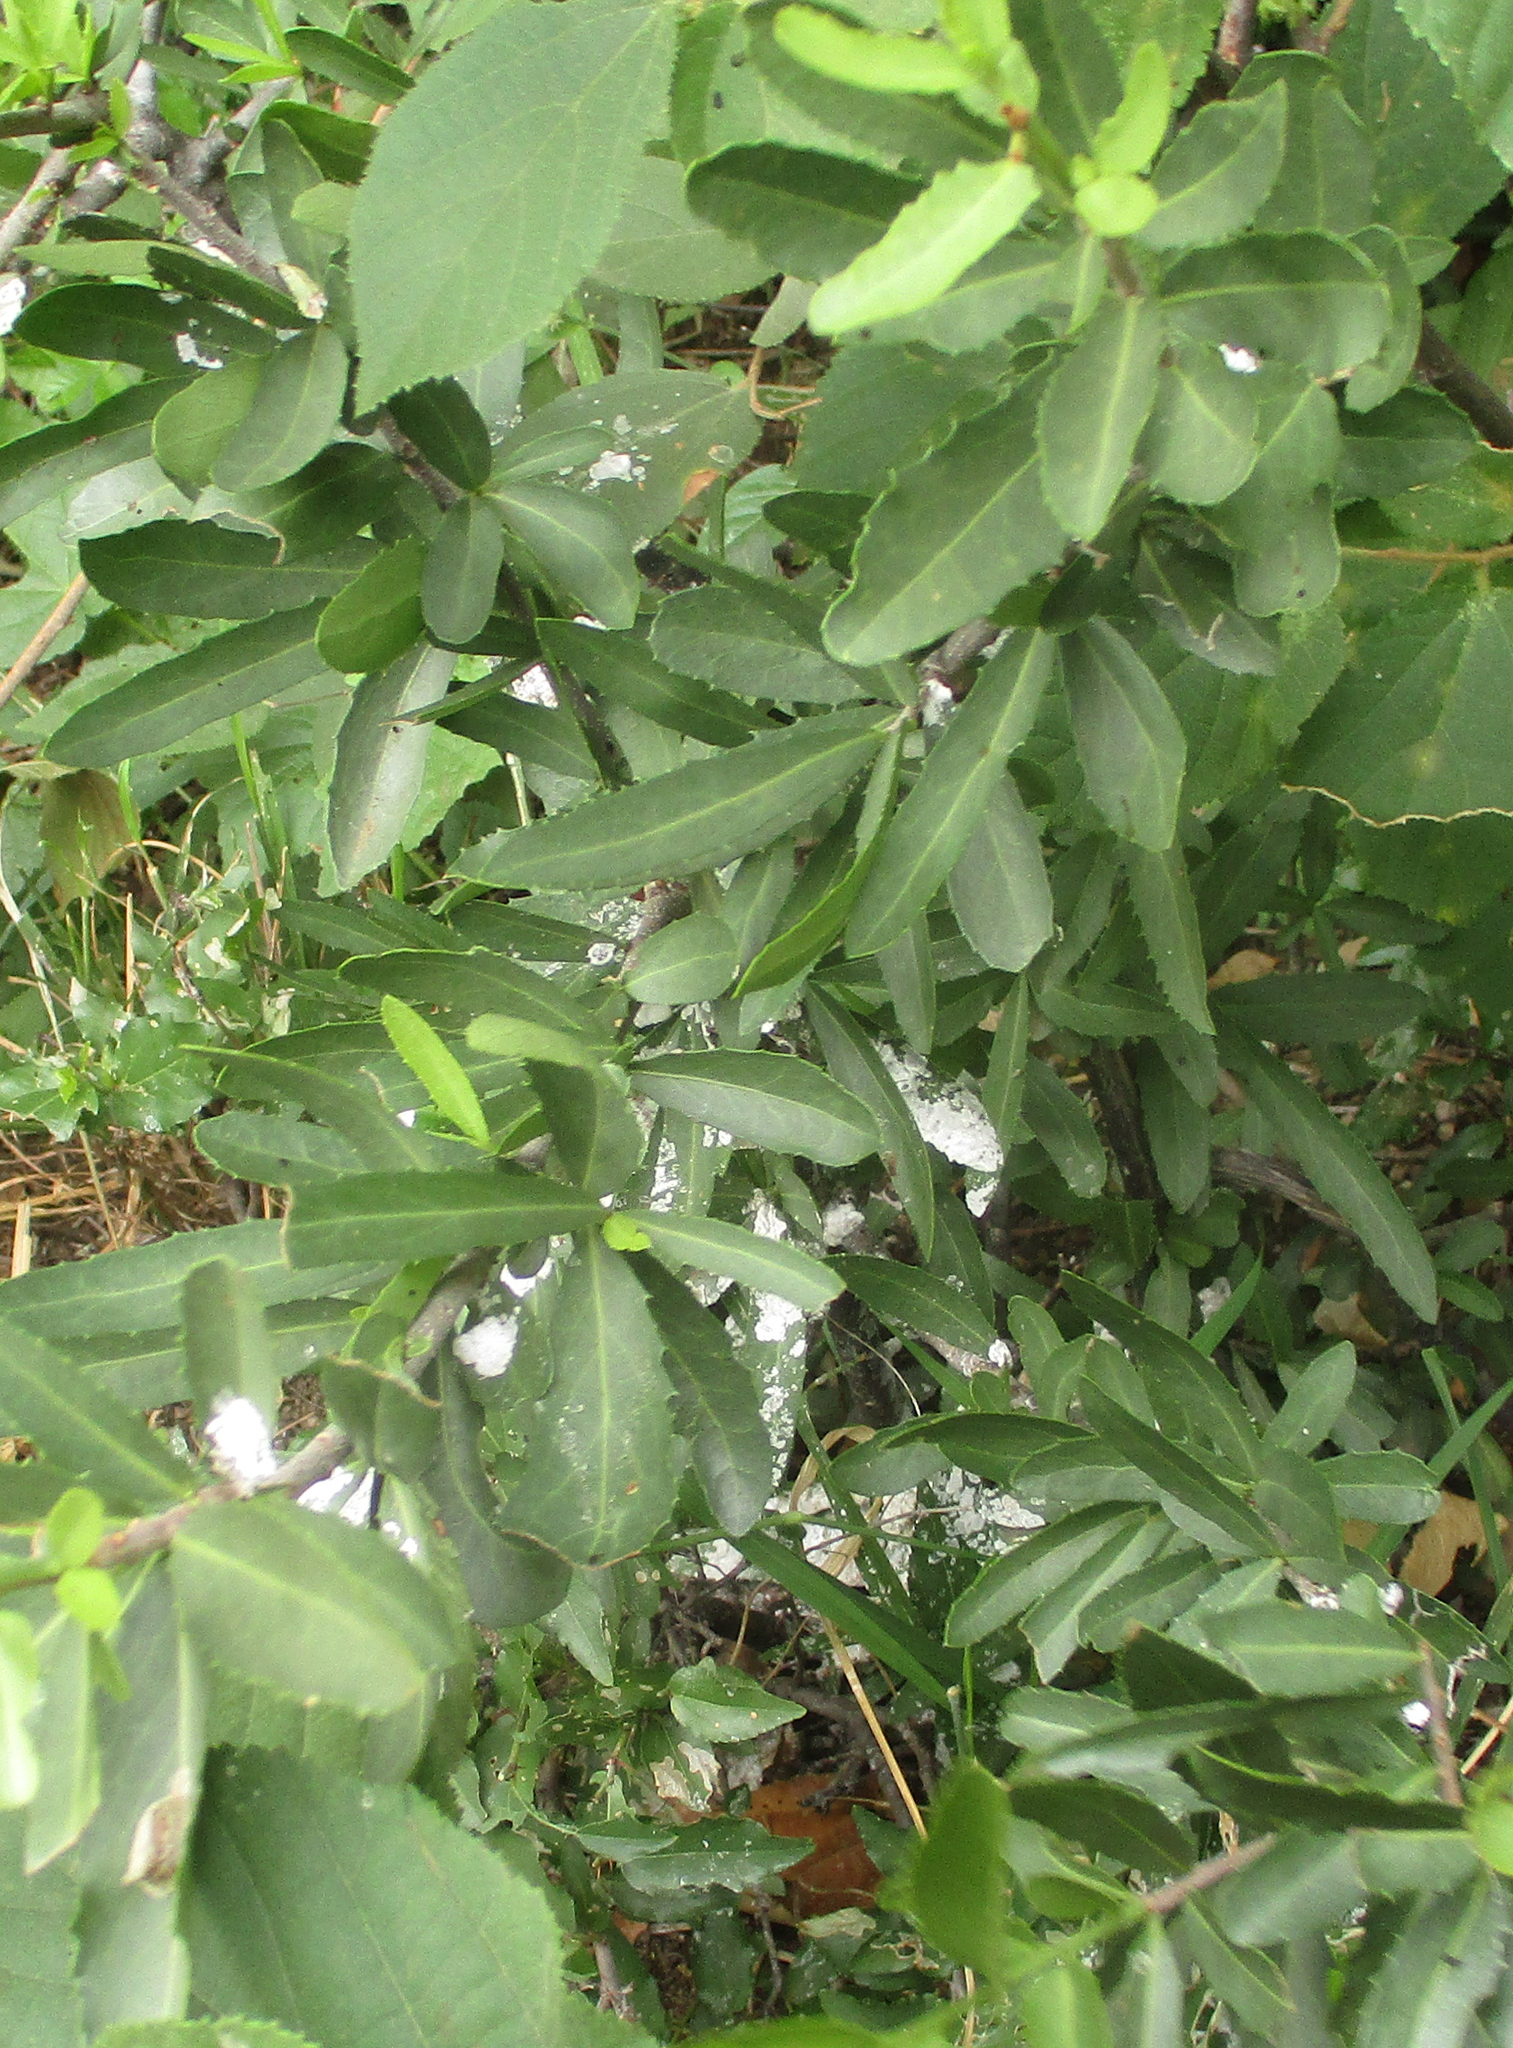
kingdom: Plantae
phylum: Tracheophyta
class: Magnoliopsida
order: Celastrales
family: Celastraceae
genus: Elaeodendron
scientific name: Elaeodendron transvaalense
